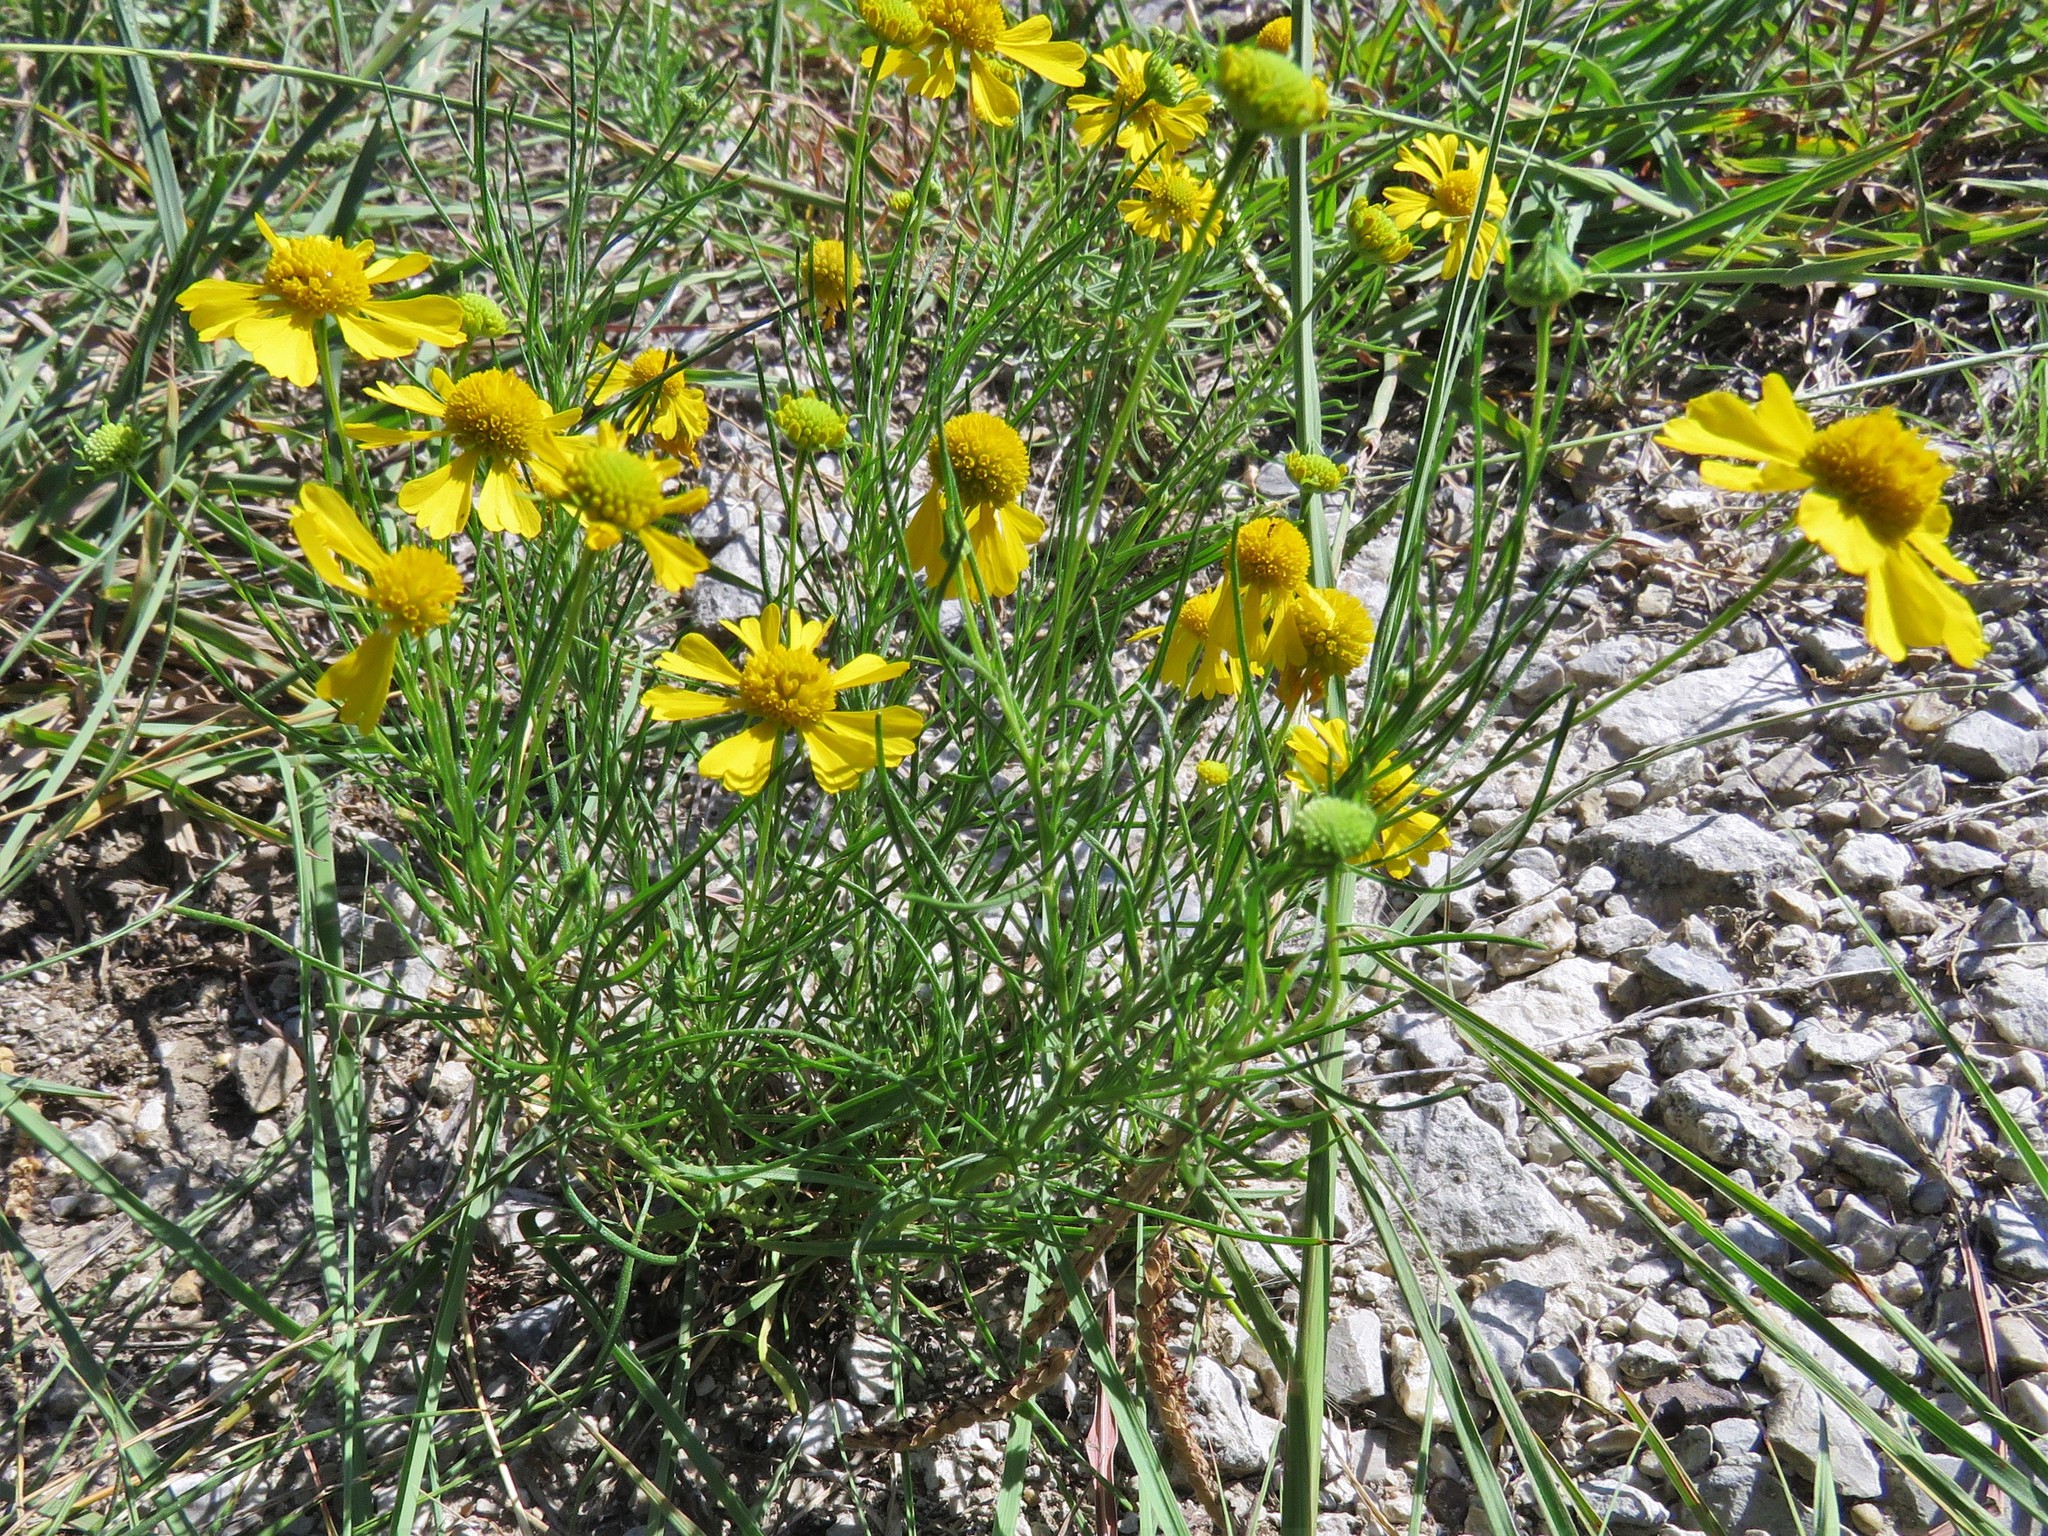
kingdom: Plantae
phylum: Tracheophyta
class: Magnoliopsida
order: Asterales
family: Asteraceae
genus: Helenium
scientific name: Helenium amarum
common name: Bitter sneezeweed
